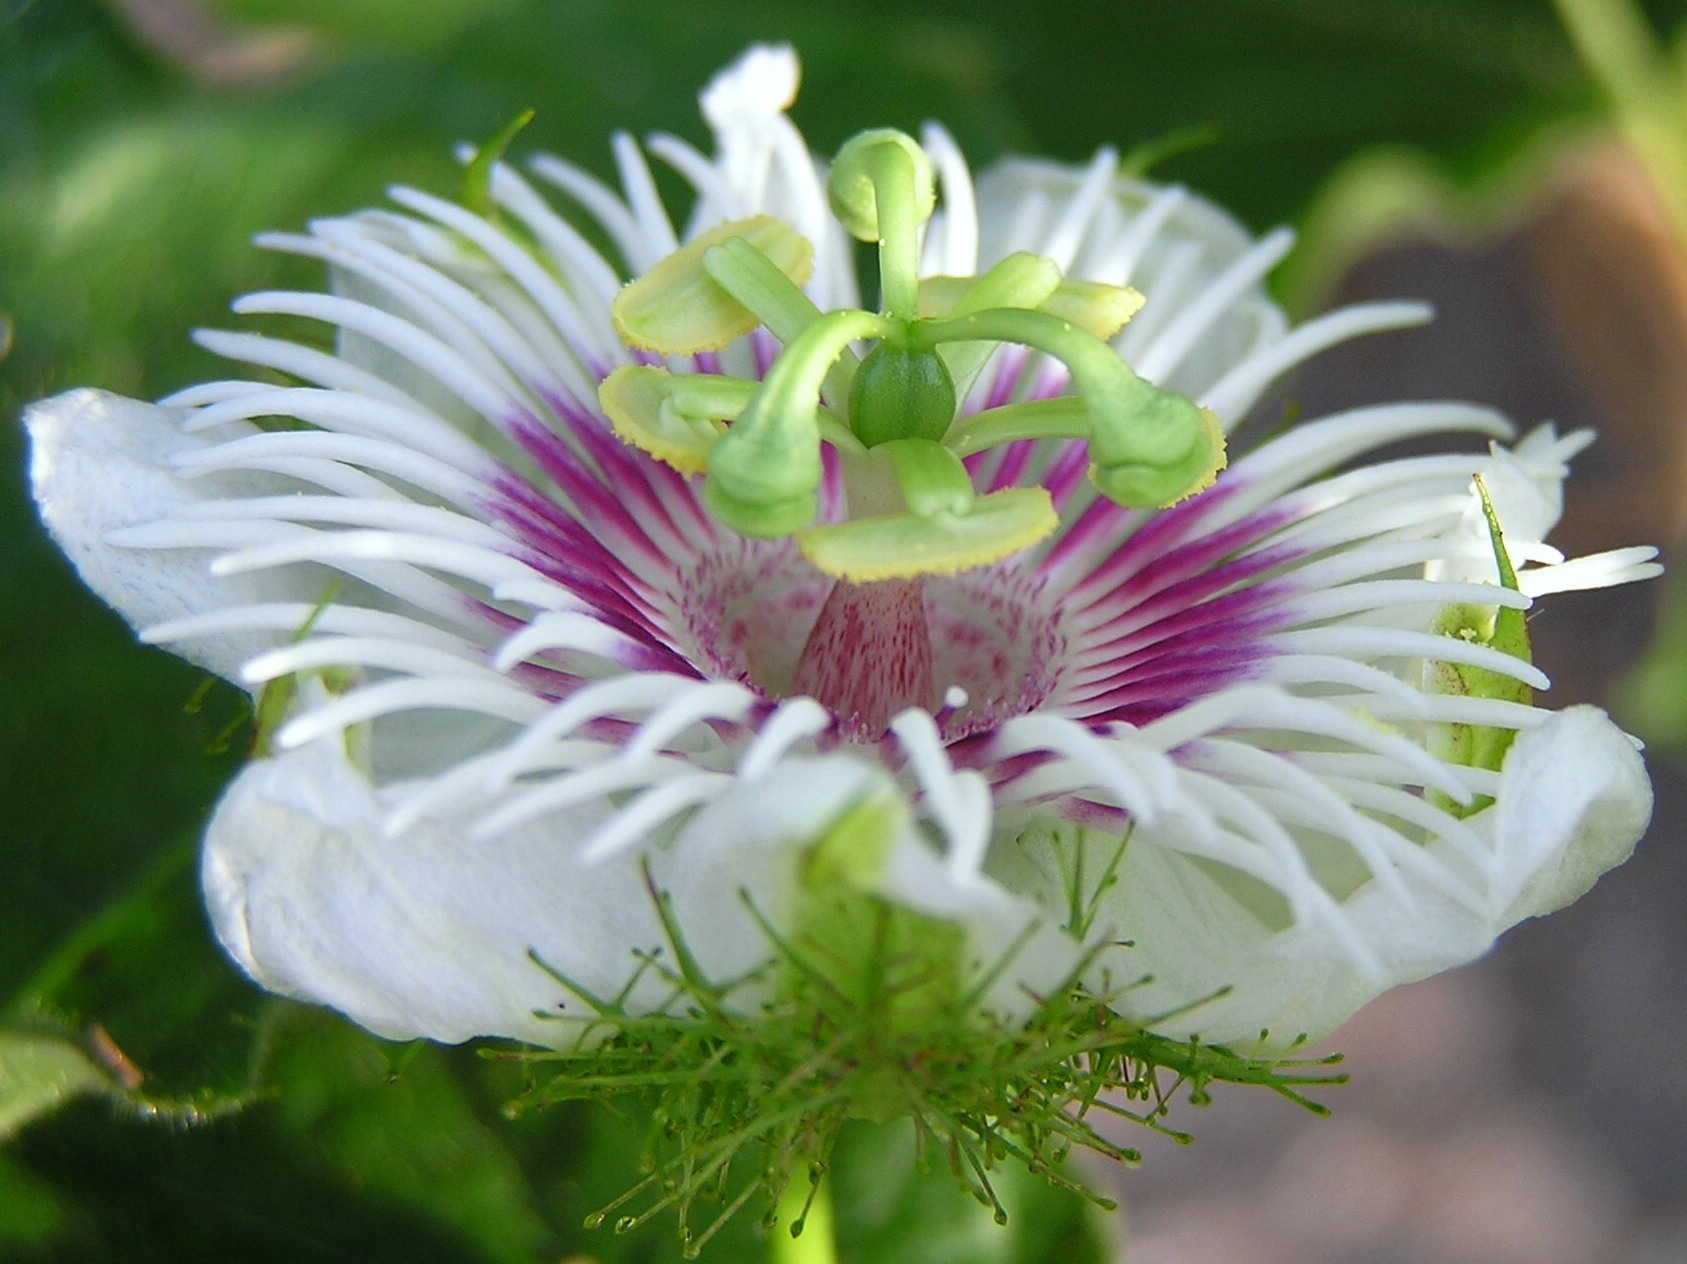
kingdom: Plantae
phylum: Tracheophyta
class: Magnoliopsida
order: Malpighiales
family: Passifloraceae
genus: Passiflora
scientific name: Passiflora foetida
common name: Fetid passionflower
